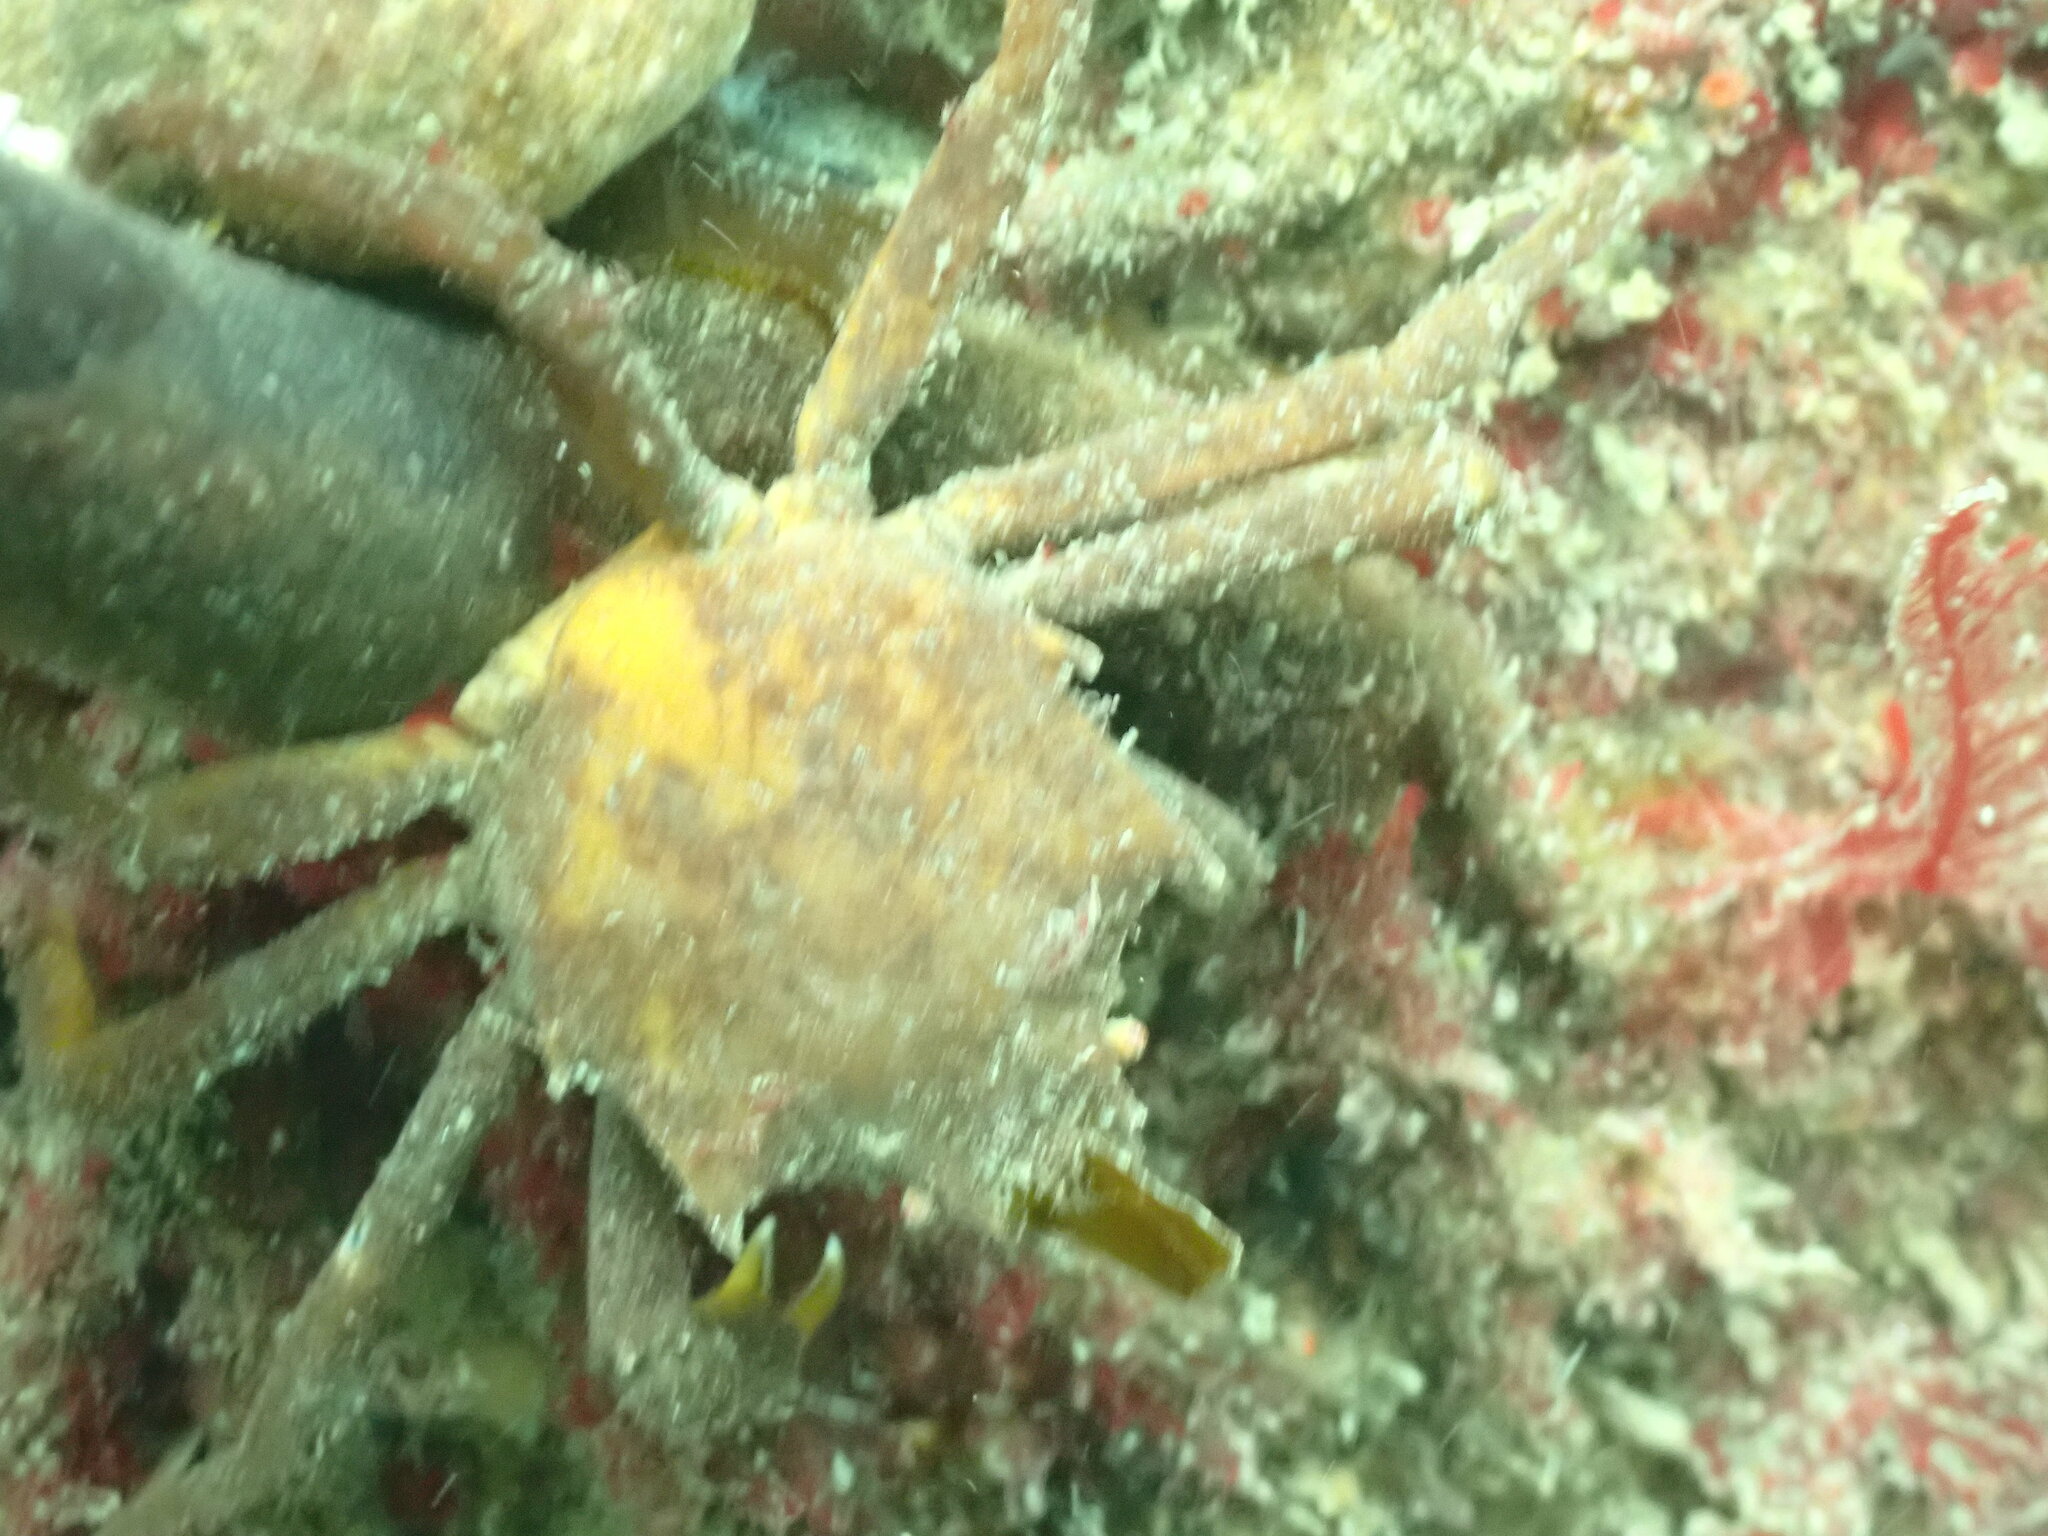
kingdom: Animalia
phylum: Arthropoda
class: Malacostraca
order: Decapoda
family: Epialtidae
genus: Pugettia
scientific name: Pugettia producta
